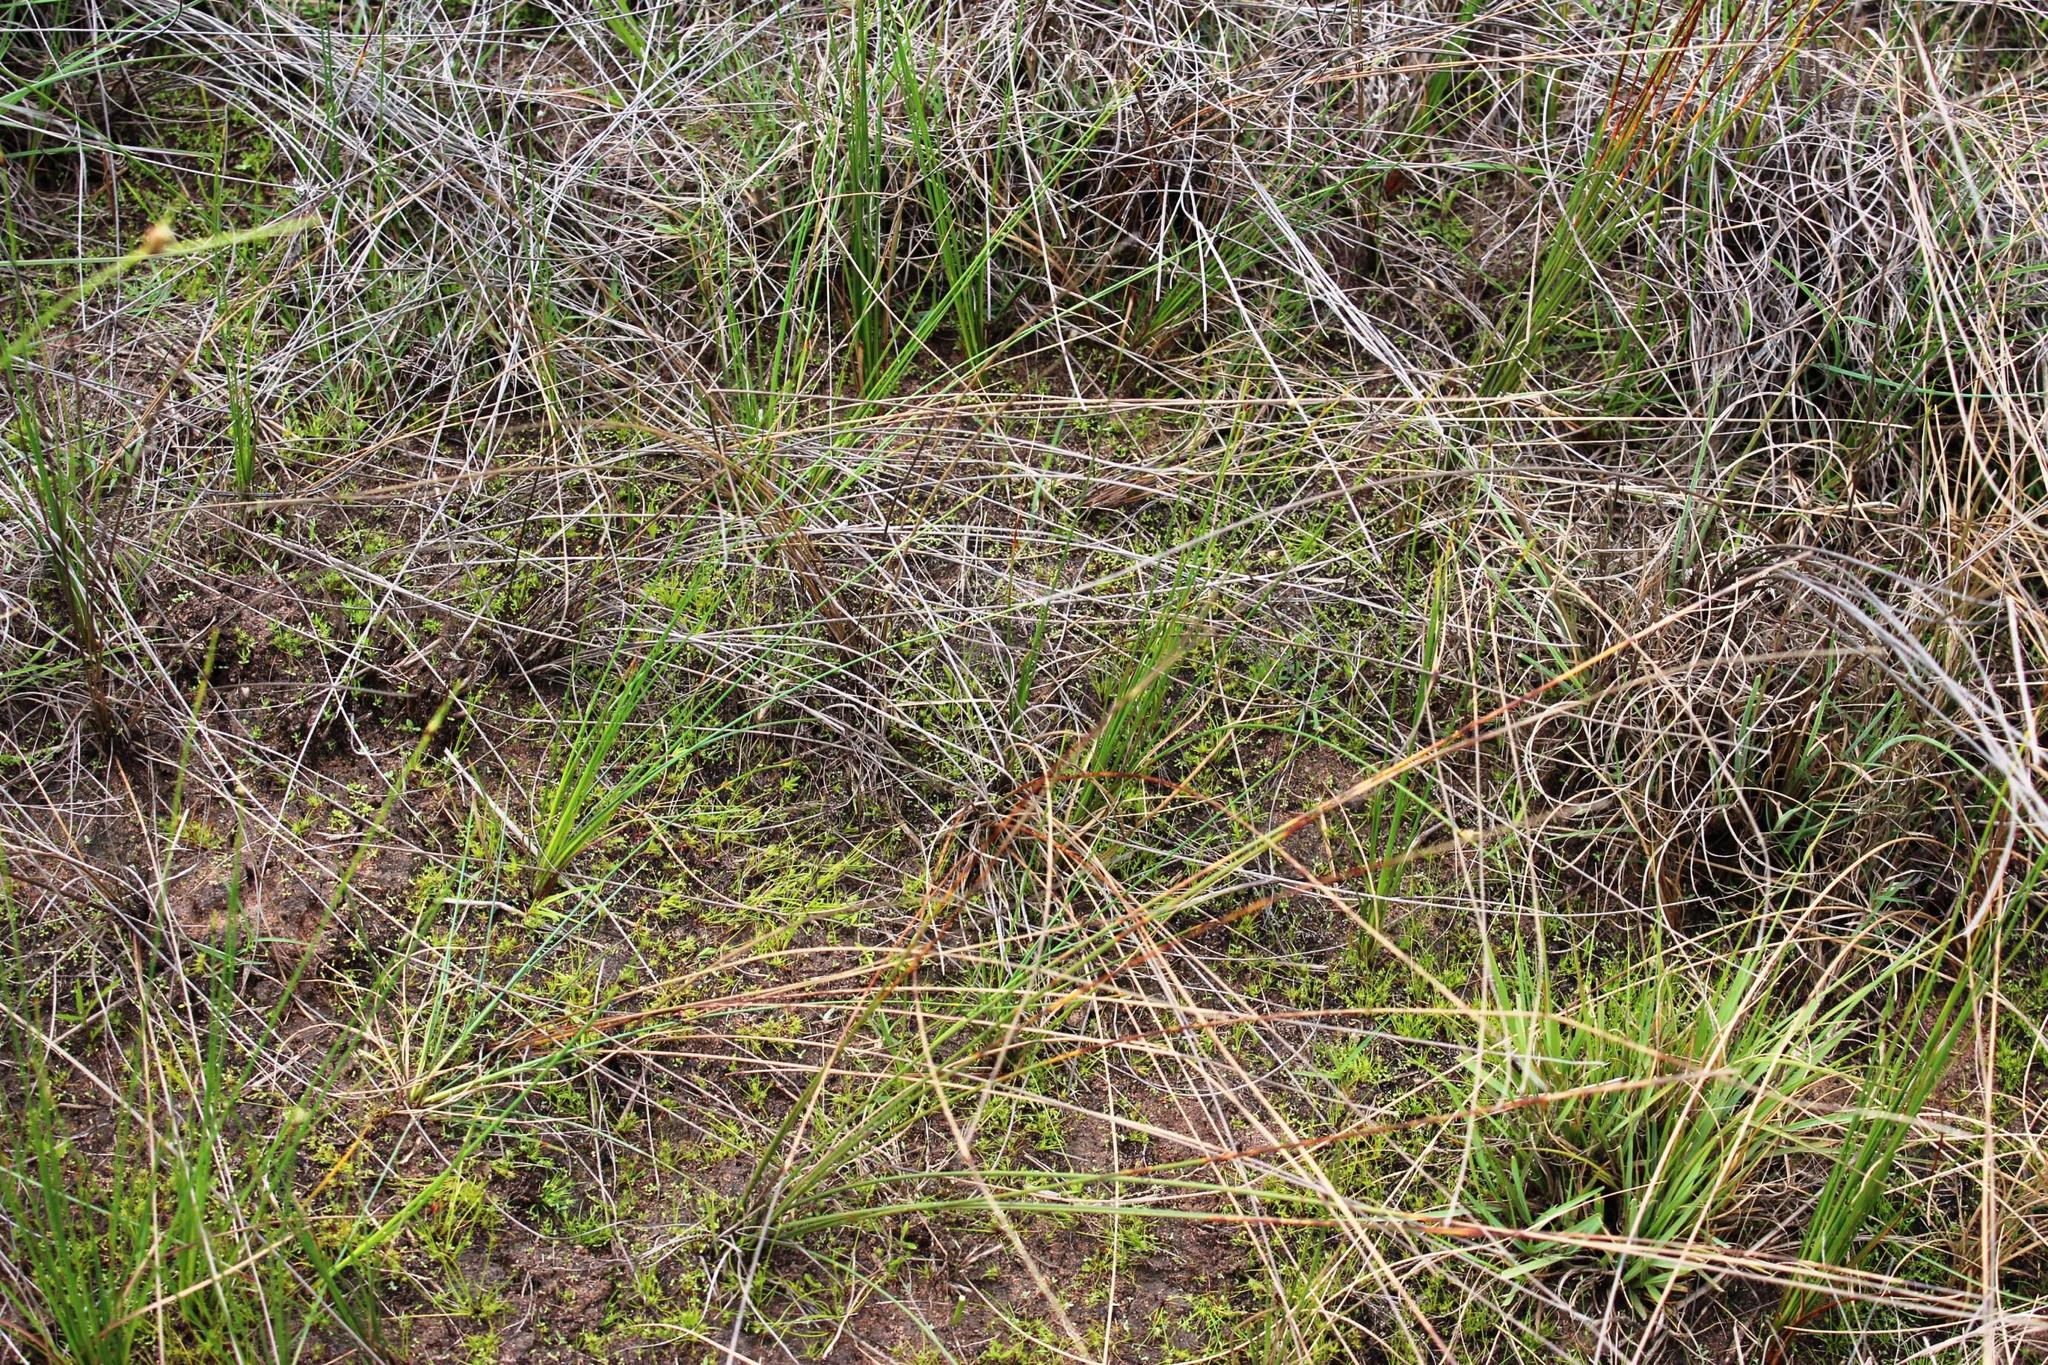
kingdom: Plantae
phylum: Tracheophyta
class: Liliopsida
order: Poales
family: Cyperaceae
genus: Ficinia
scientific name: Ficinia indica
